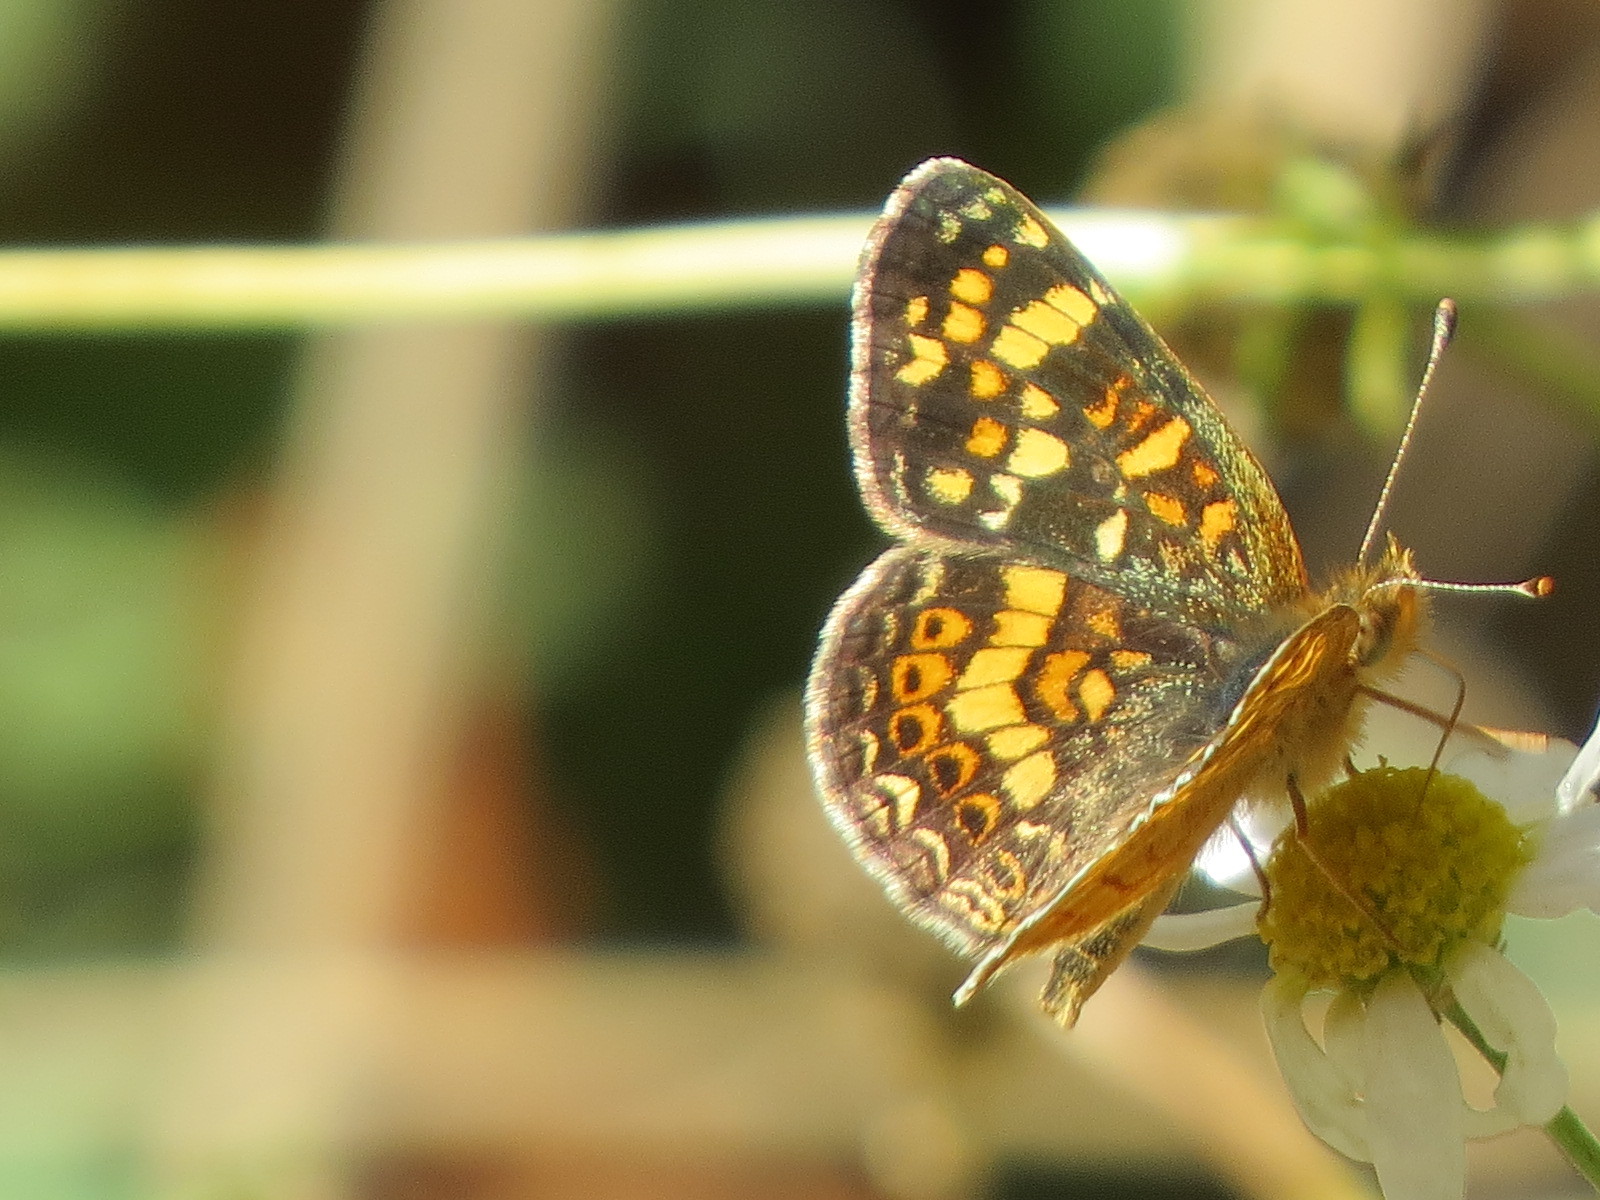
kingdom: Animalia
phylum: Arthropoda
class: Insecta
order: Lepidoptera
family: Nymphalidae
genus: Phyciodes
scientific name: Phyciodes tharos
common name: Pearl crescent
